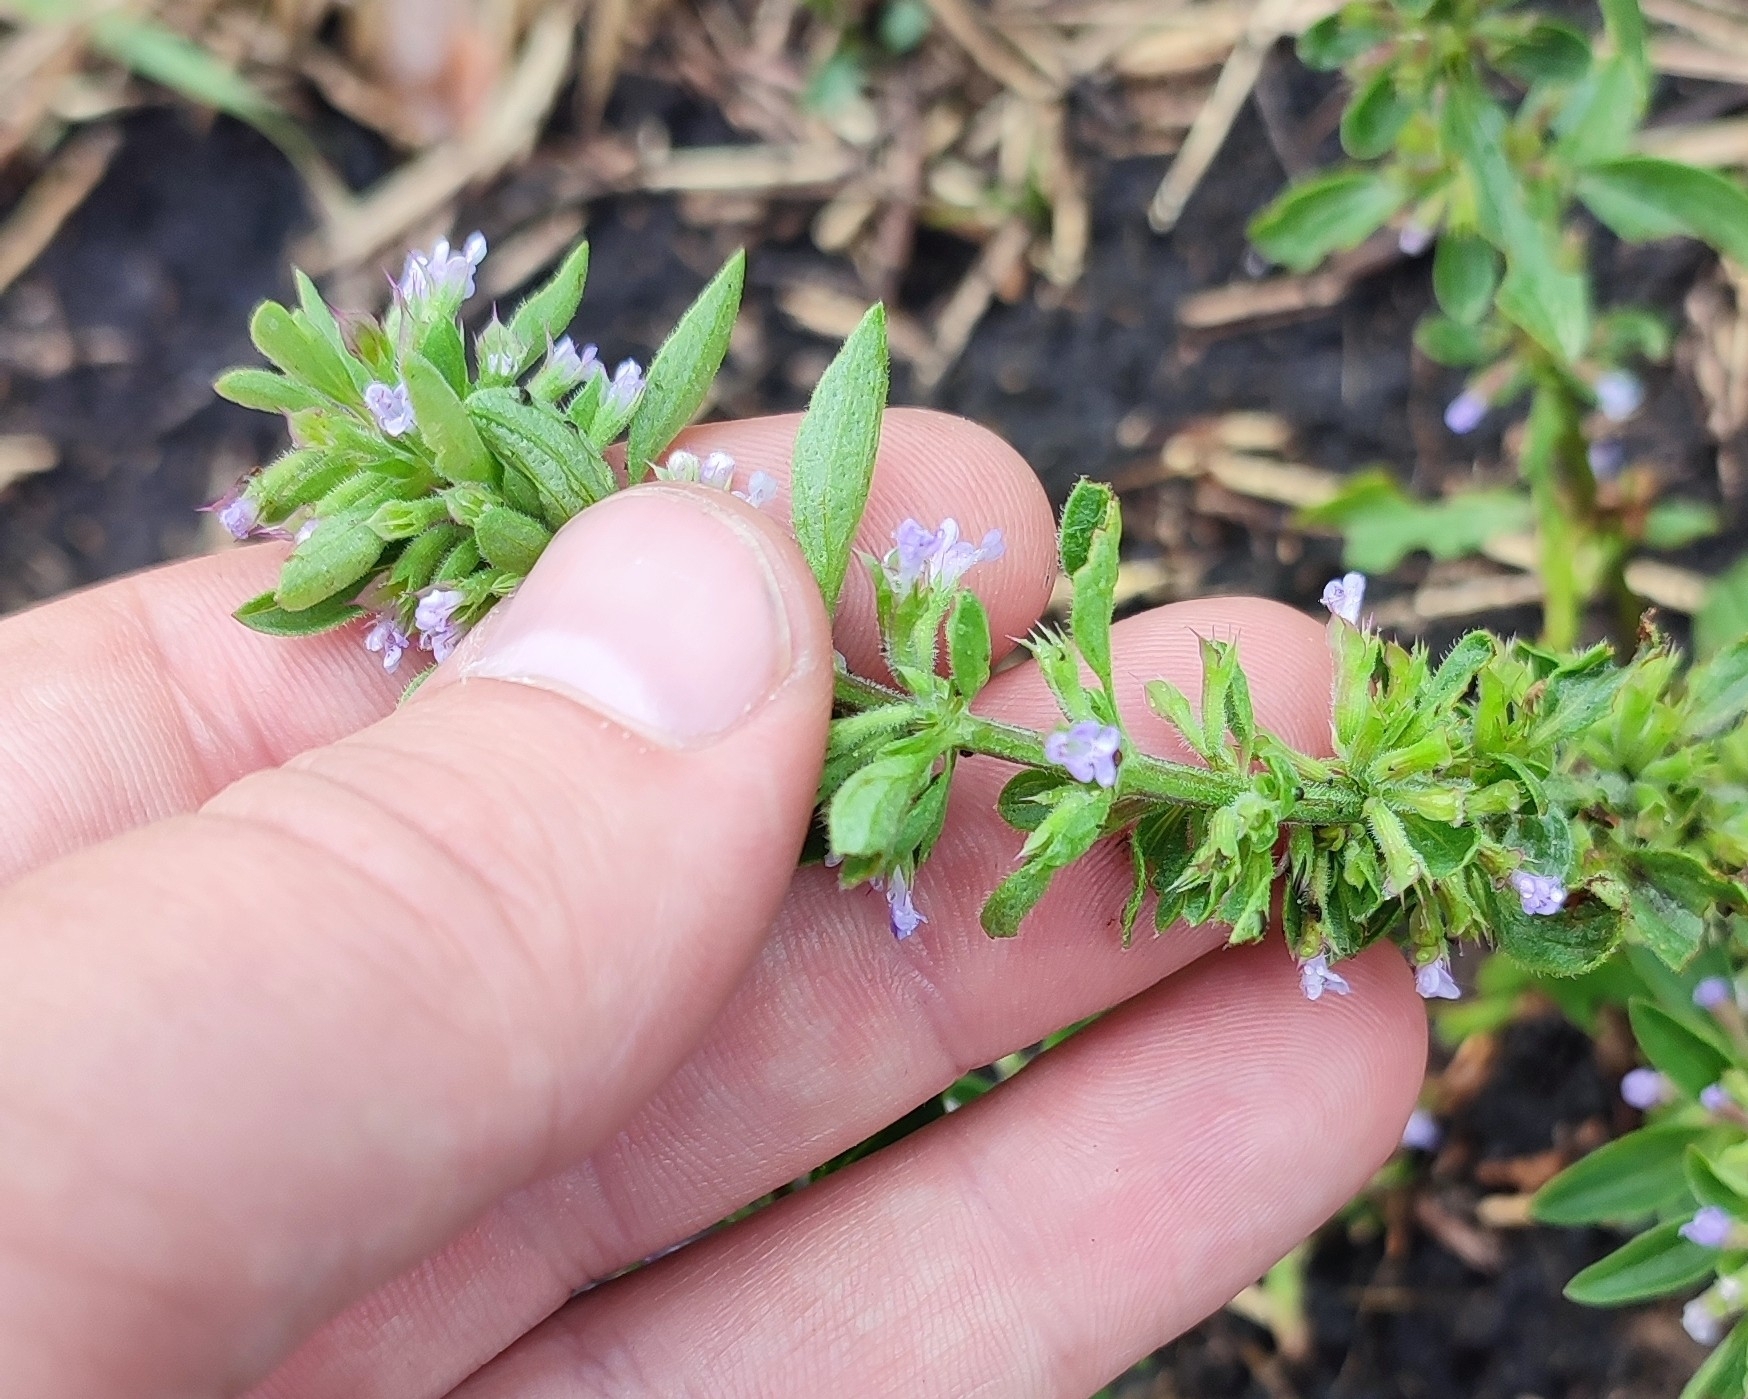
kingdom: Plantae
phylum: Tracheophyta
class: Magnoliopsida
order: Lamiales
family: Lamiaceae
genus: Dracocephalum
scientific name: Dracocephalum thymiflorum
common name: Thymeleaf dragonhead
